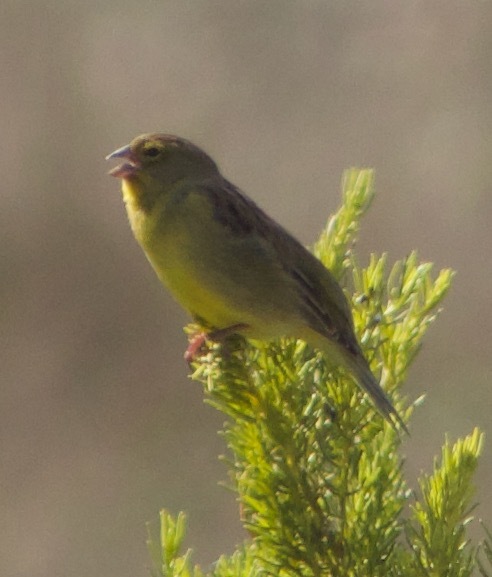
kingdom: Animalia
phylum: Chordata
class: Aves
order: Passeriformes
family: Thraupidae
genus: Sicalis
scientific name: Sicalis luteola
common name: Grassland yellow-finch
